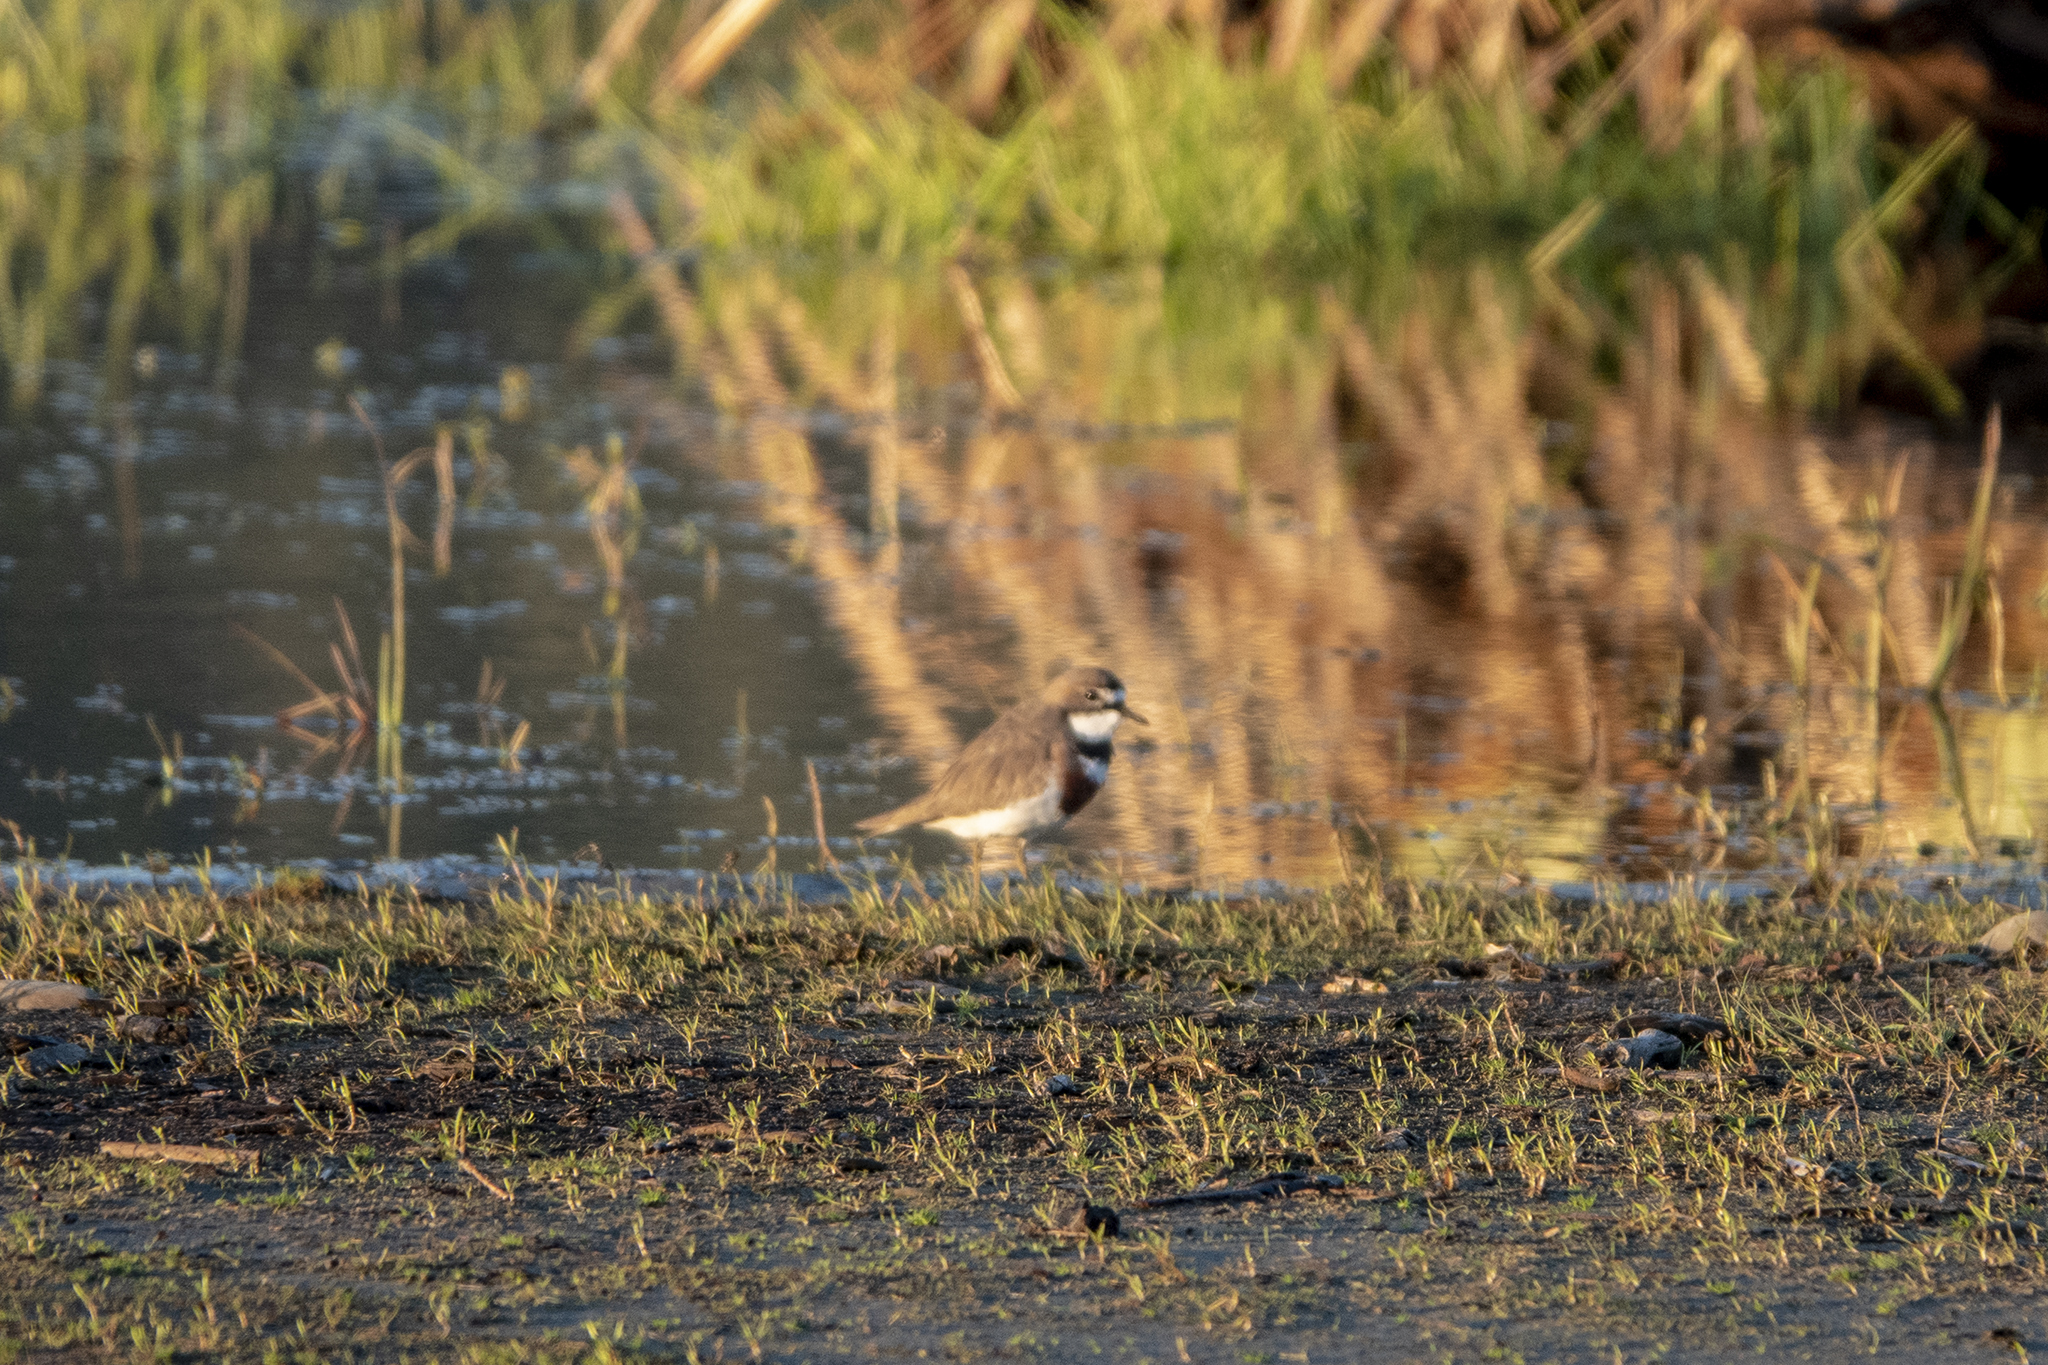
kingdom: Animalia
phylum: Chordata
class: Aves
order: Charadriiformes
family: Charadriidae
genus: Anarhynchus
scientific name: Anarhynchus
